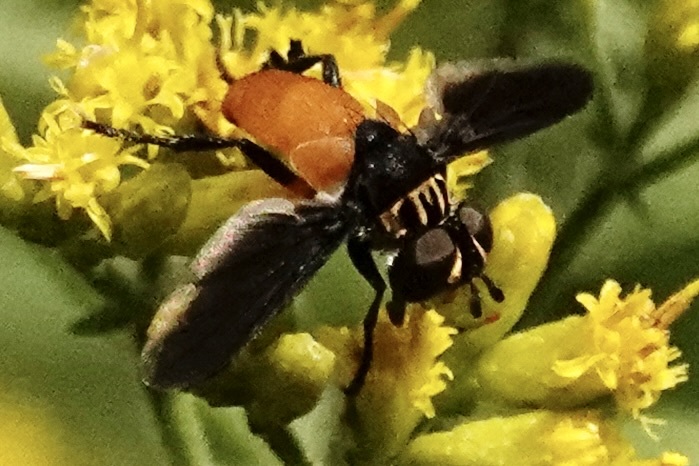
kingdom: Animalia
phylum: Arthropoda
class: Insecta
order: Diptera
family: Tachinidae
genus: Trichopoda
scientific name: Trichopoda pennipes
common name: Tachinid fly
